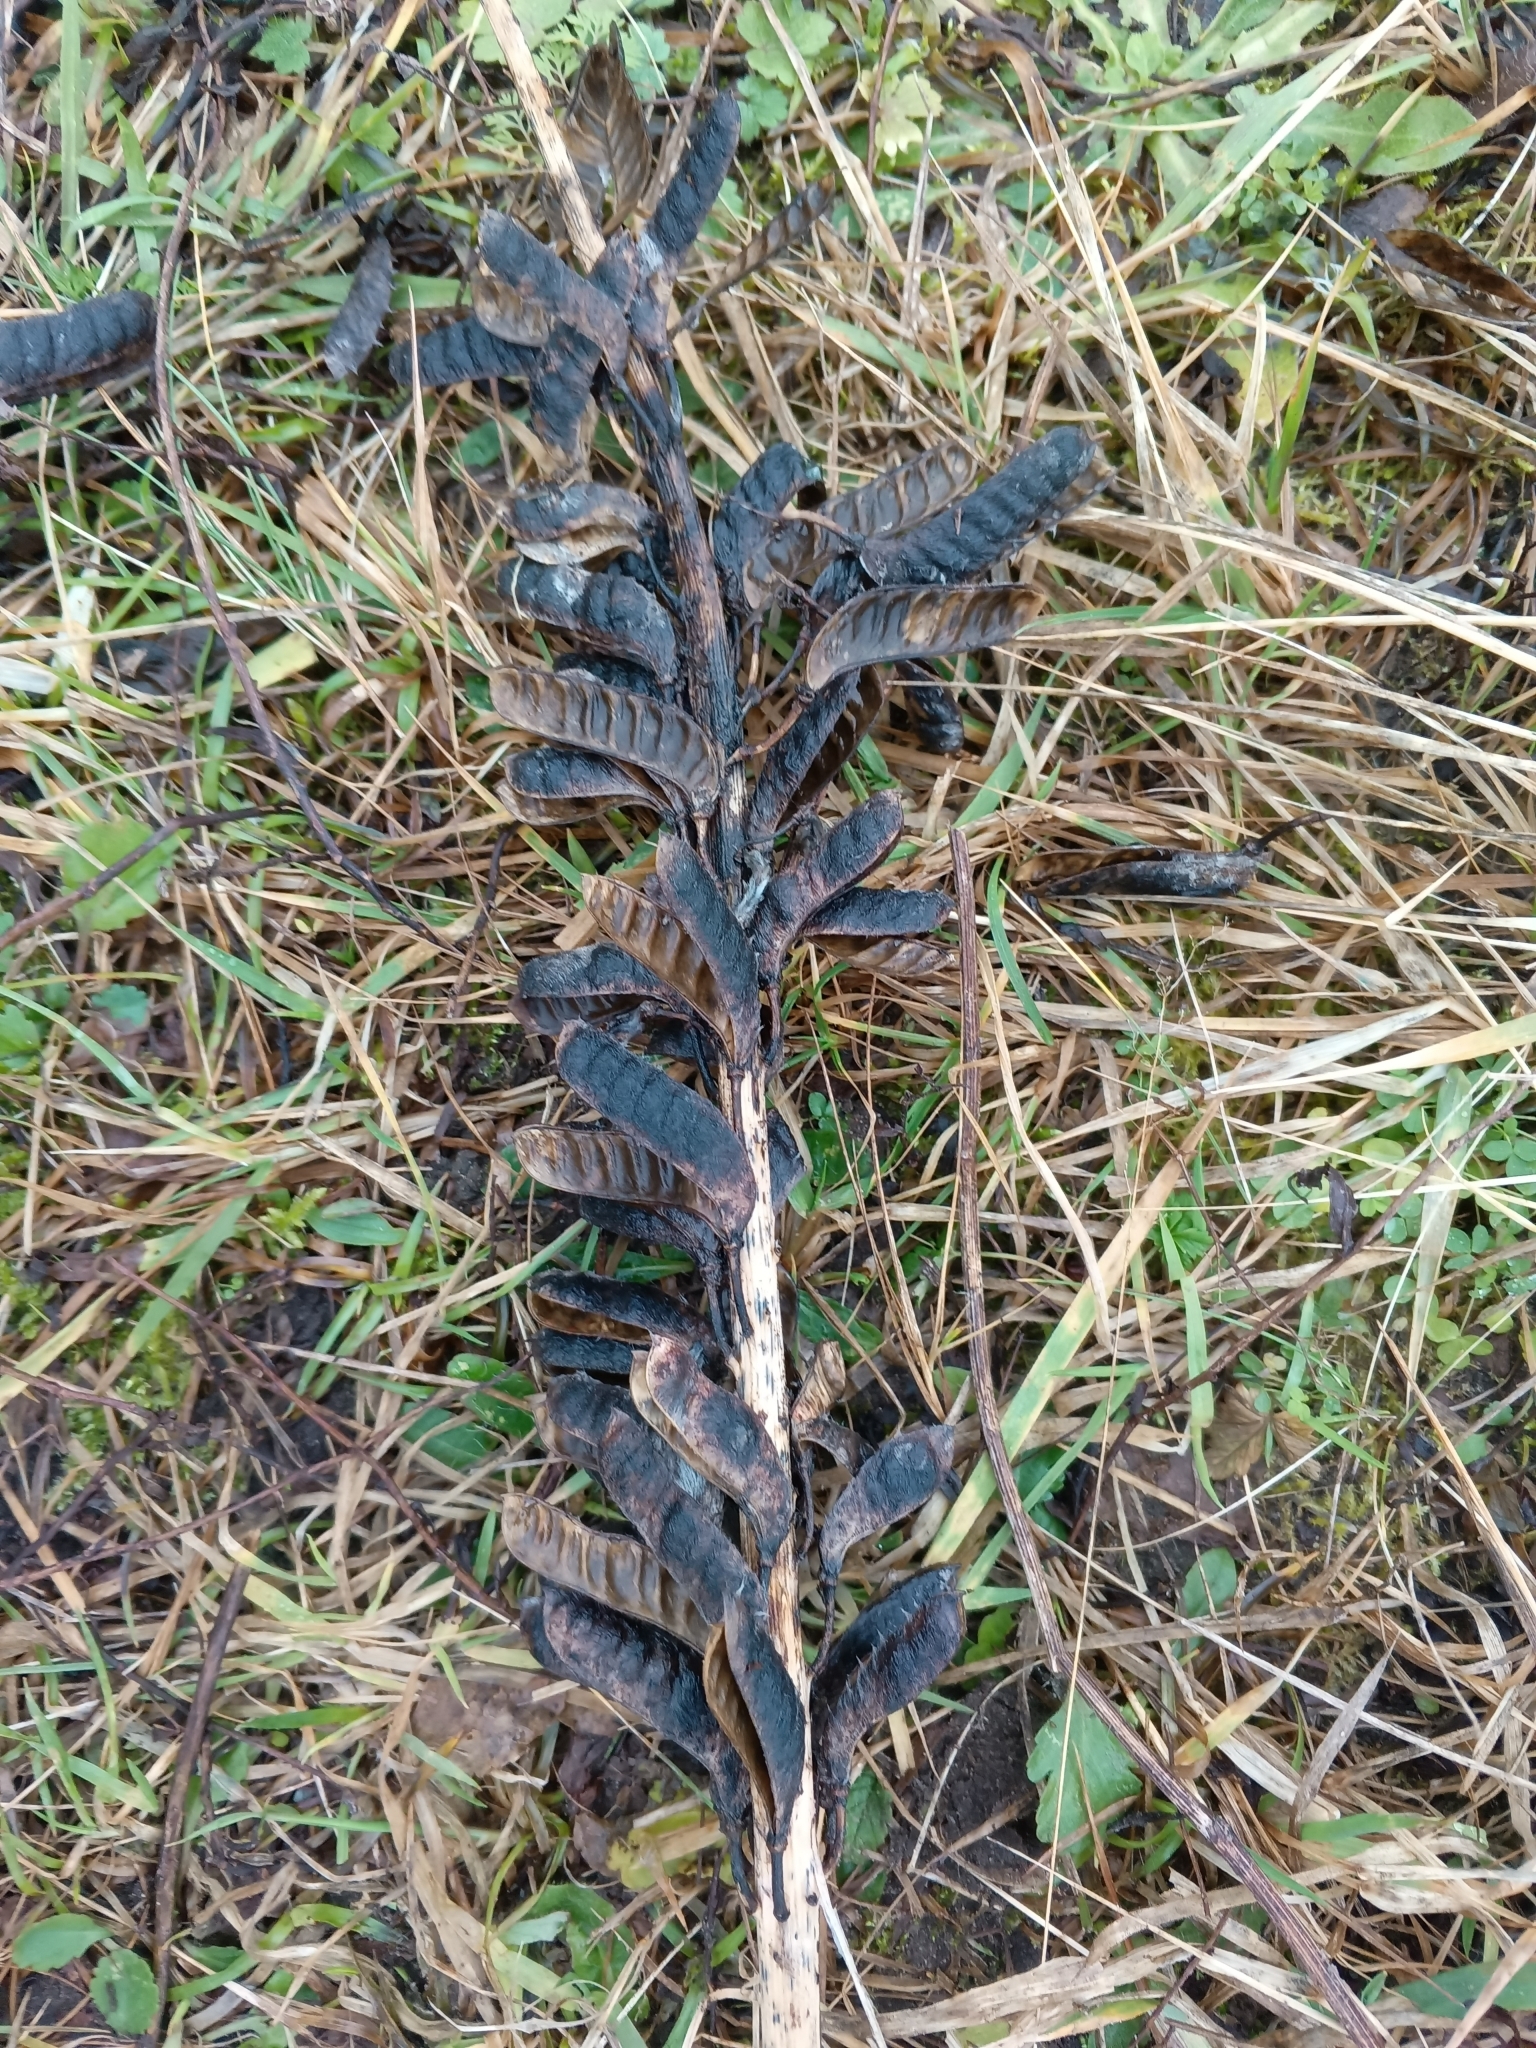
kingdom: Plantae
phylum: Tracheophyta
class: Magnoliopsida
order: Fabales
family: Fabaceae
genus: Lupinus
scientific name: Lupinus polyphyllus
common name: Garden lupin
